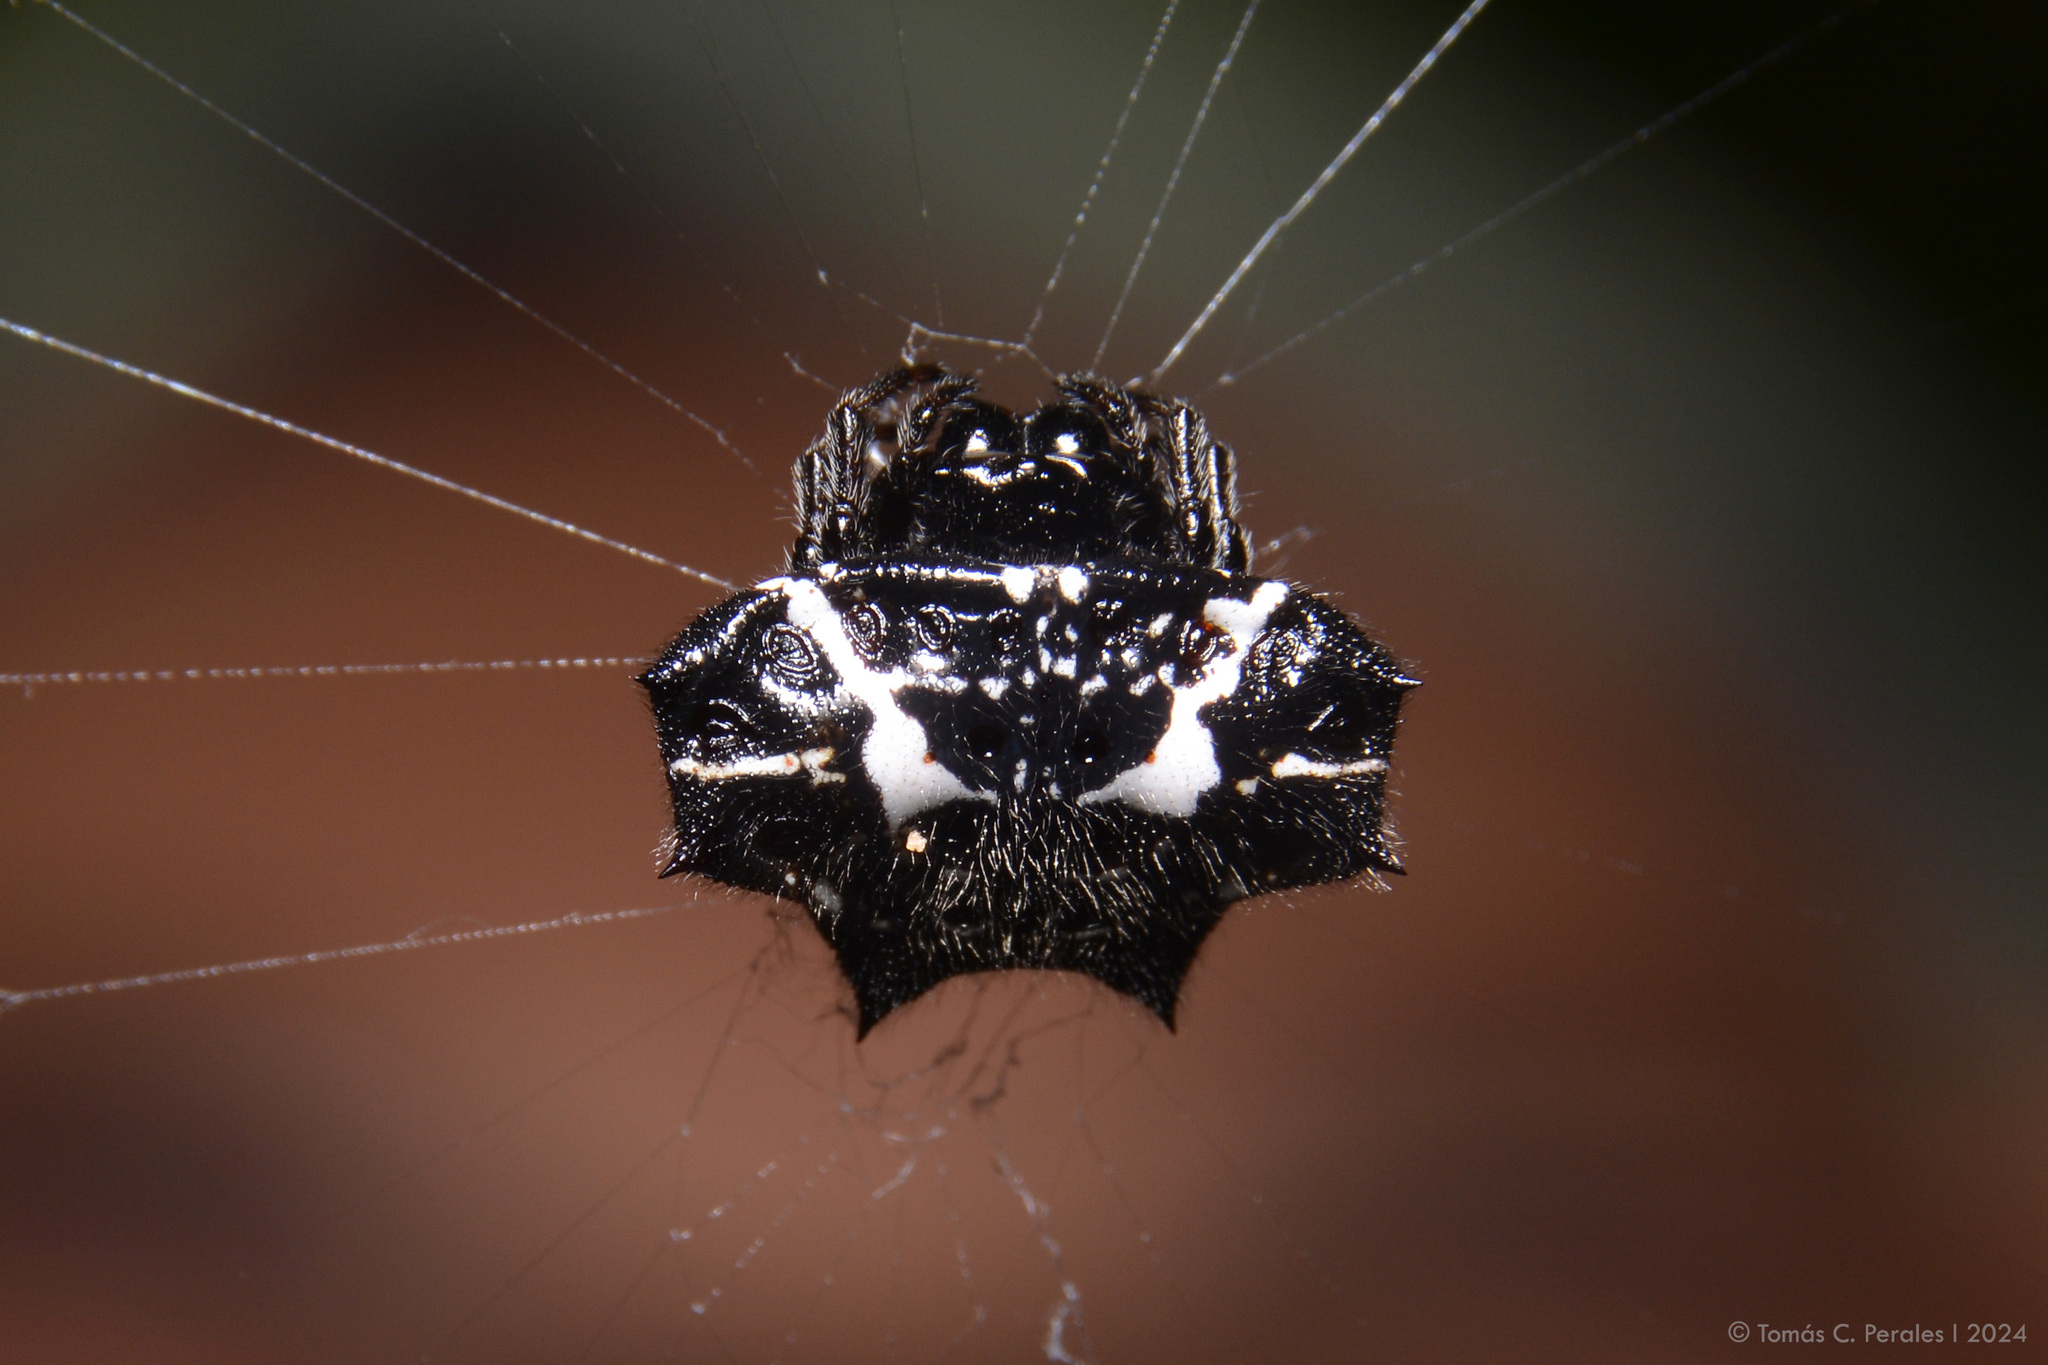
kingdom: Animalia
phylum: Arthropoda
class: Arachnida
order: Araneae
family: Araneidae
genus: Gasteracantha
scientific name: Gasteracantha cancriformis
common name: Orb weavers
